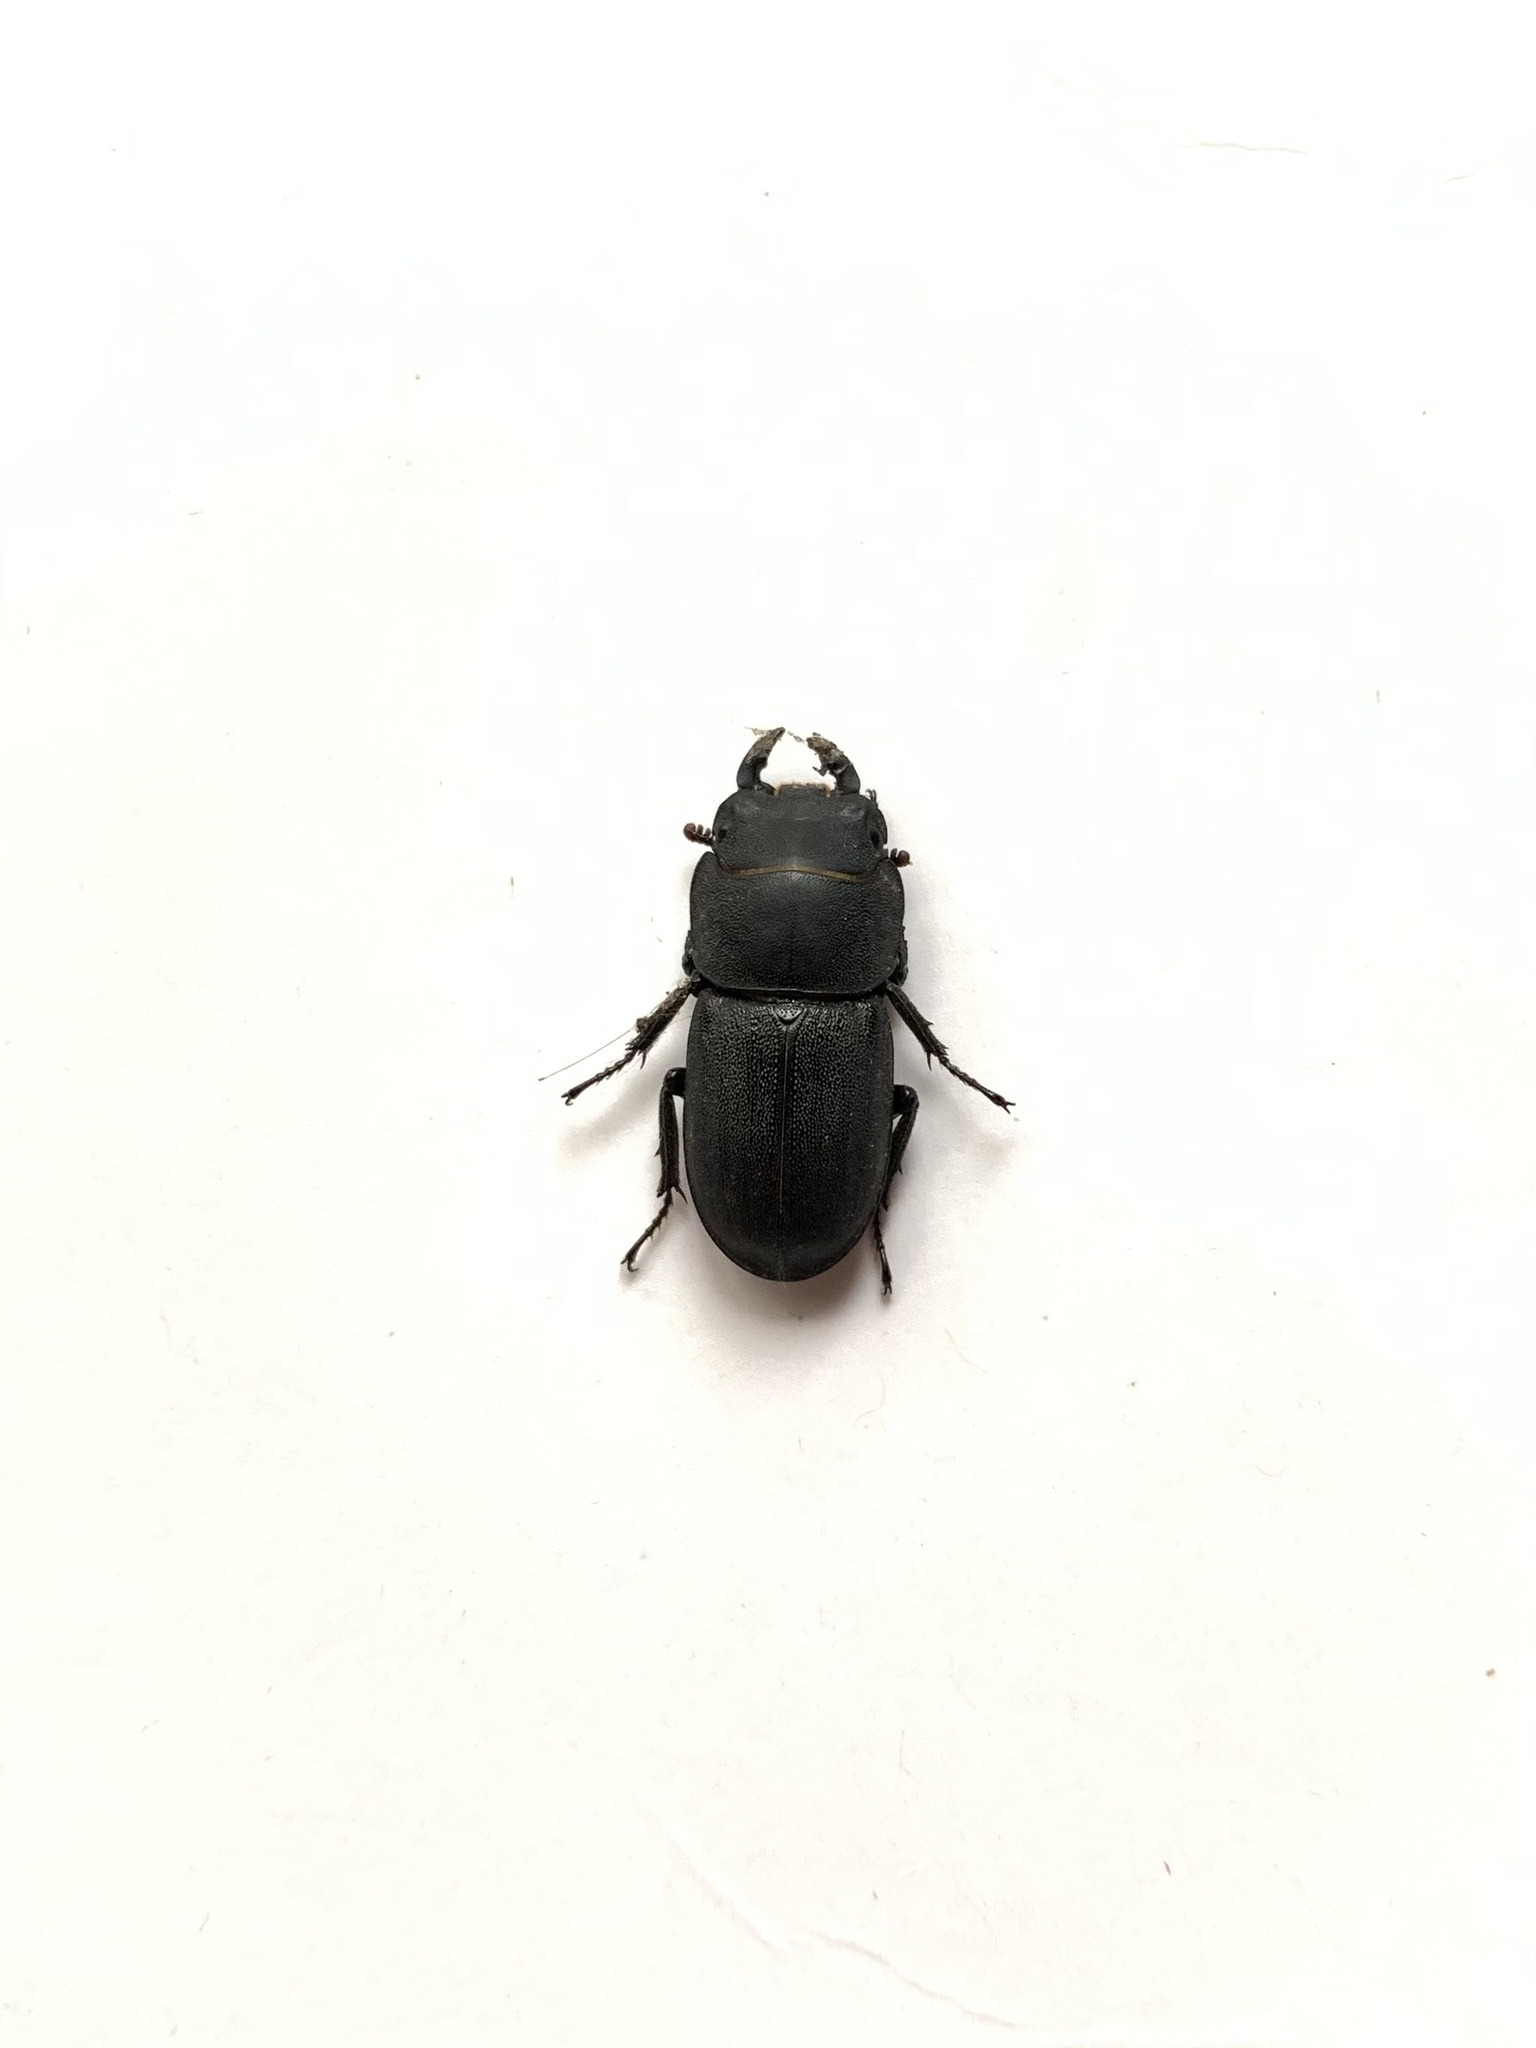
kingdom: Animalia
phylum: Arthropoda
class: Insecta
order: Coleoptera
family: Lucanidae
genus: Dorcus
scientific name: Dorcus parallelipipedus
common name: Lesser stag beetle
